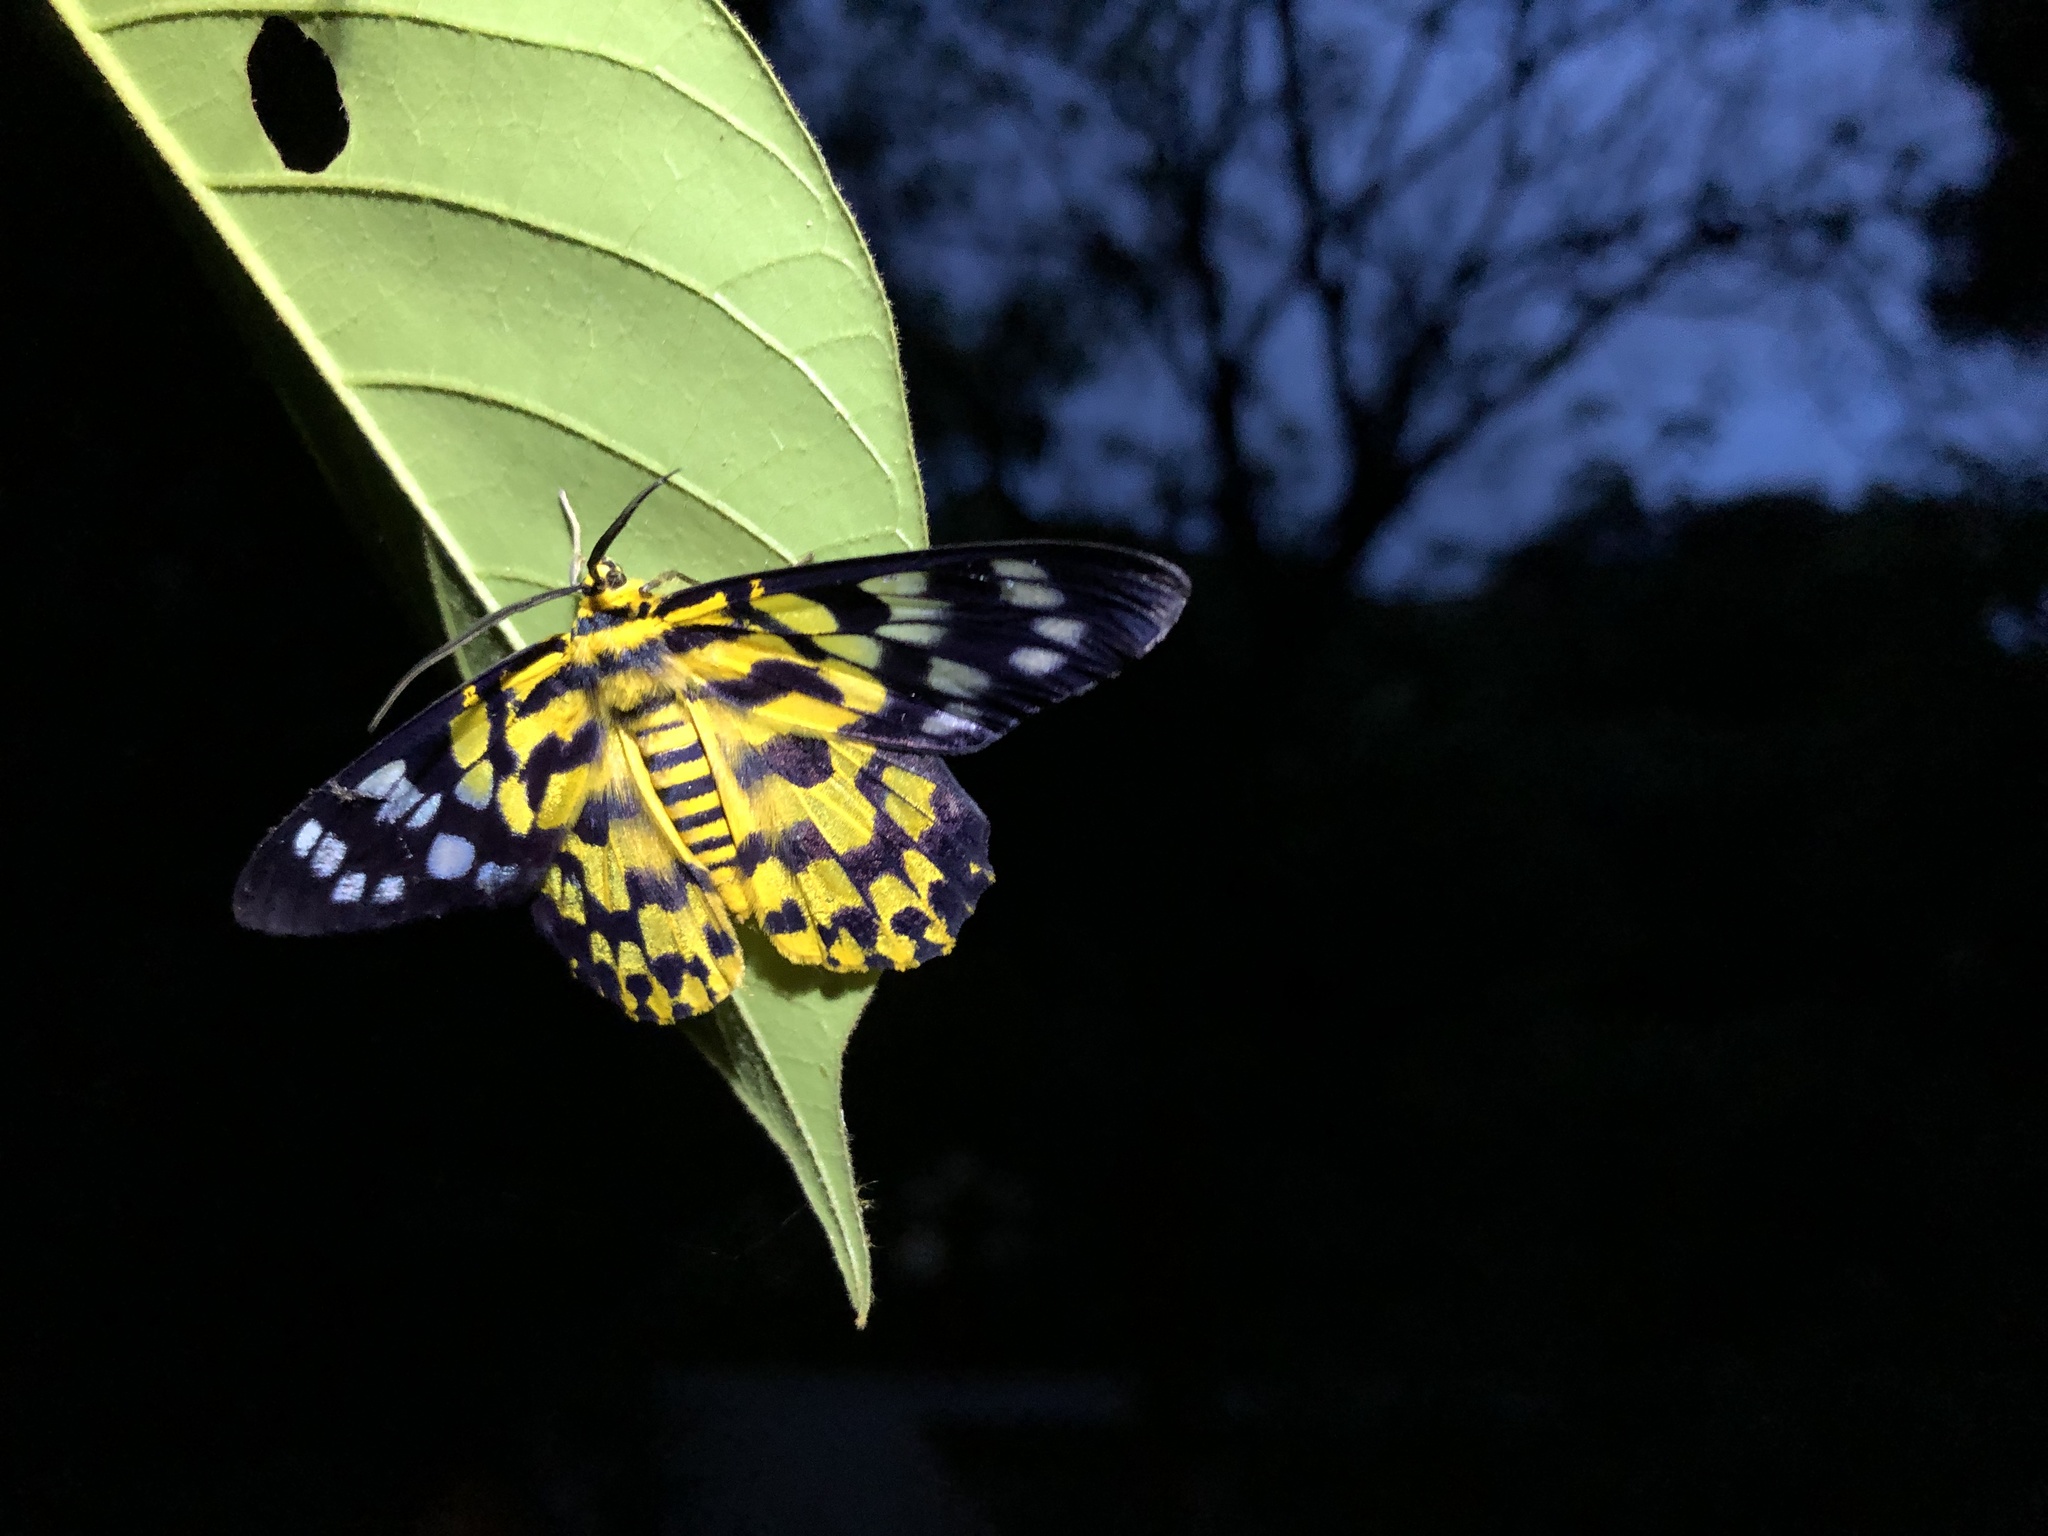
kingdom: Animalia
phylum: Arthropoda
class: Insecta
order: Lepidoptera
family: Geometridae
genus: Dysphania
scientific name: Dysphania militaris
